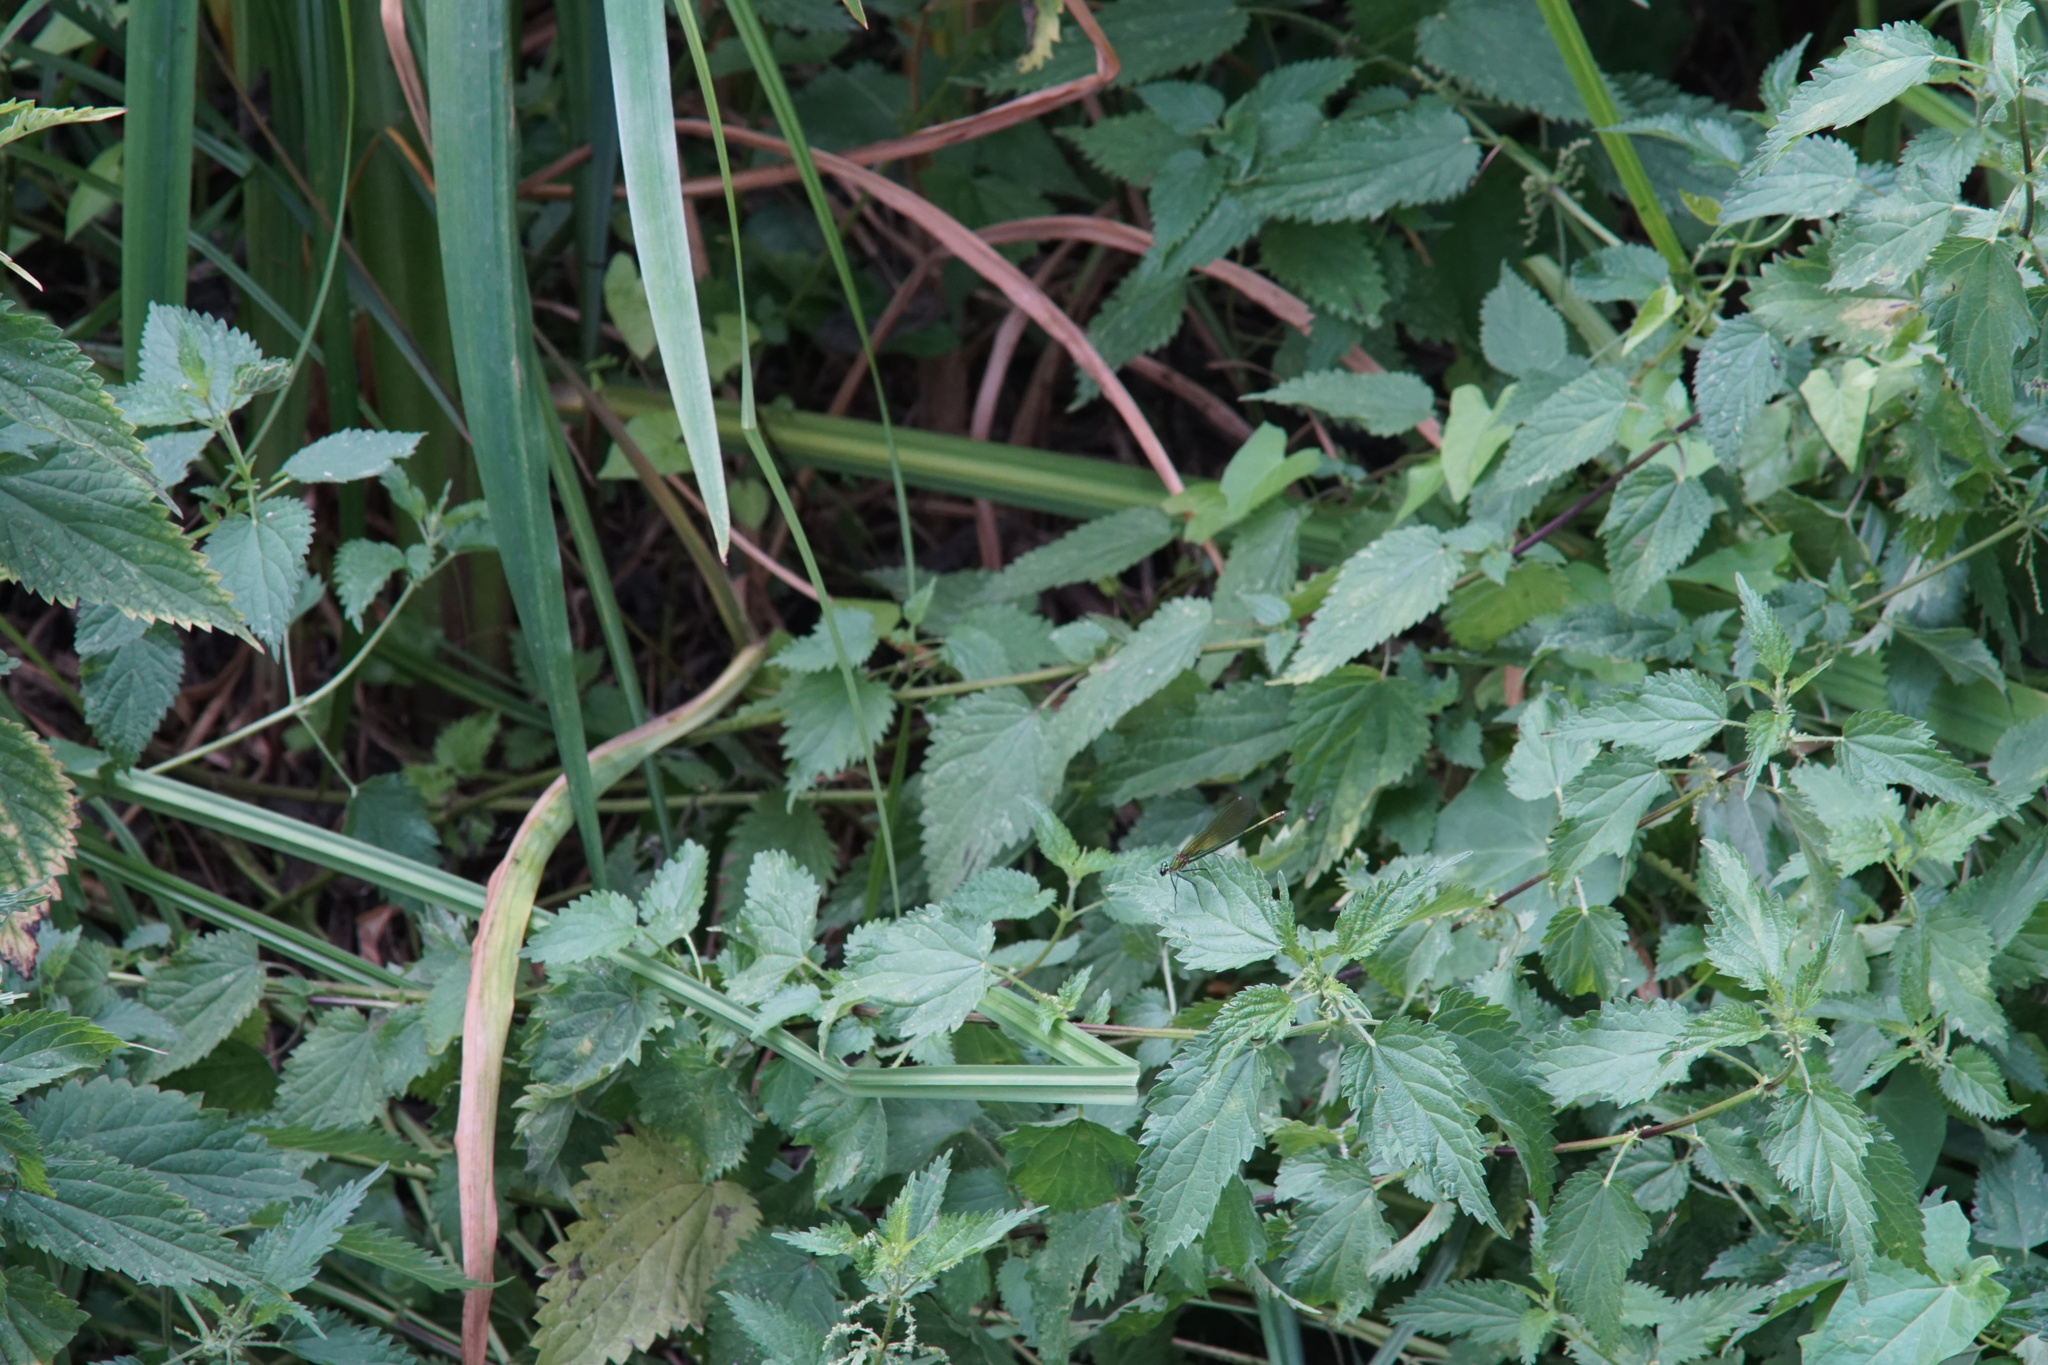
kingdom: Animalia
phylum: Arthropoda
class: Insecta
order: Odonata
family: Calopterygidae
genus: Calopteryx
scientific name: Calopteryx splendens
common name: Banded demoiselle
